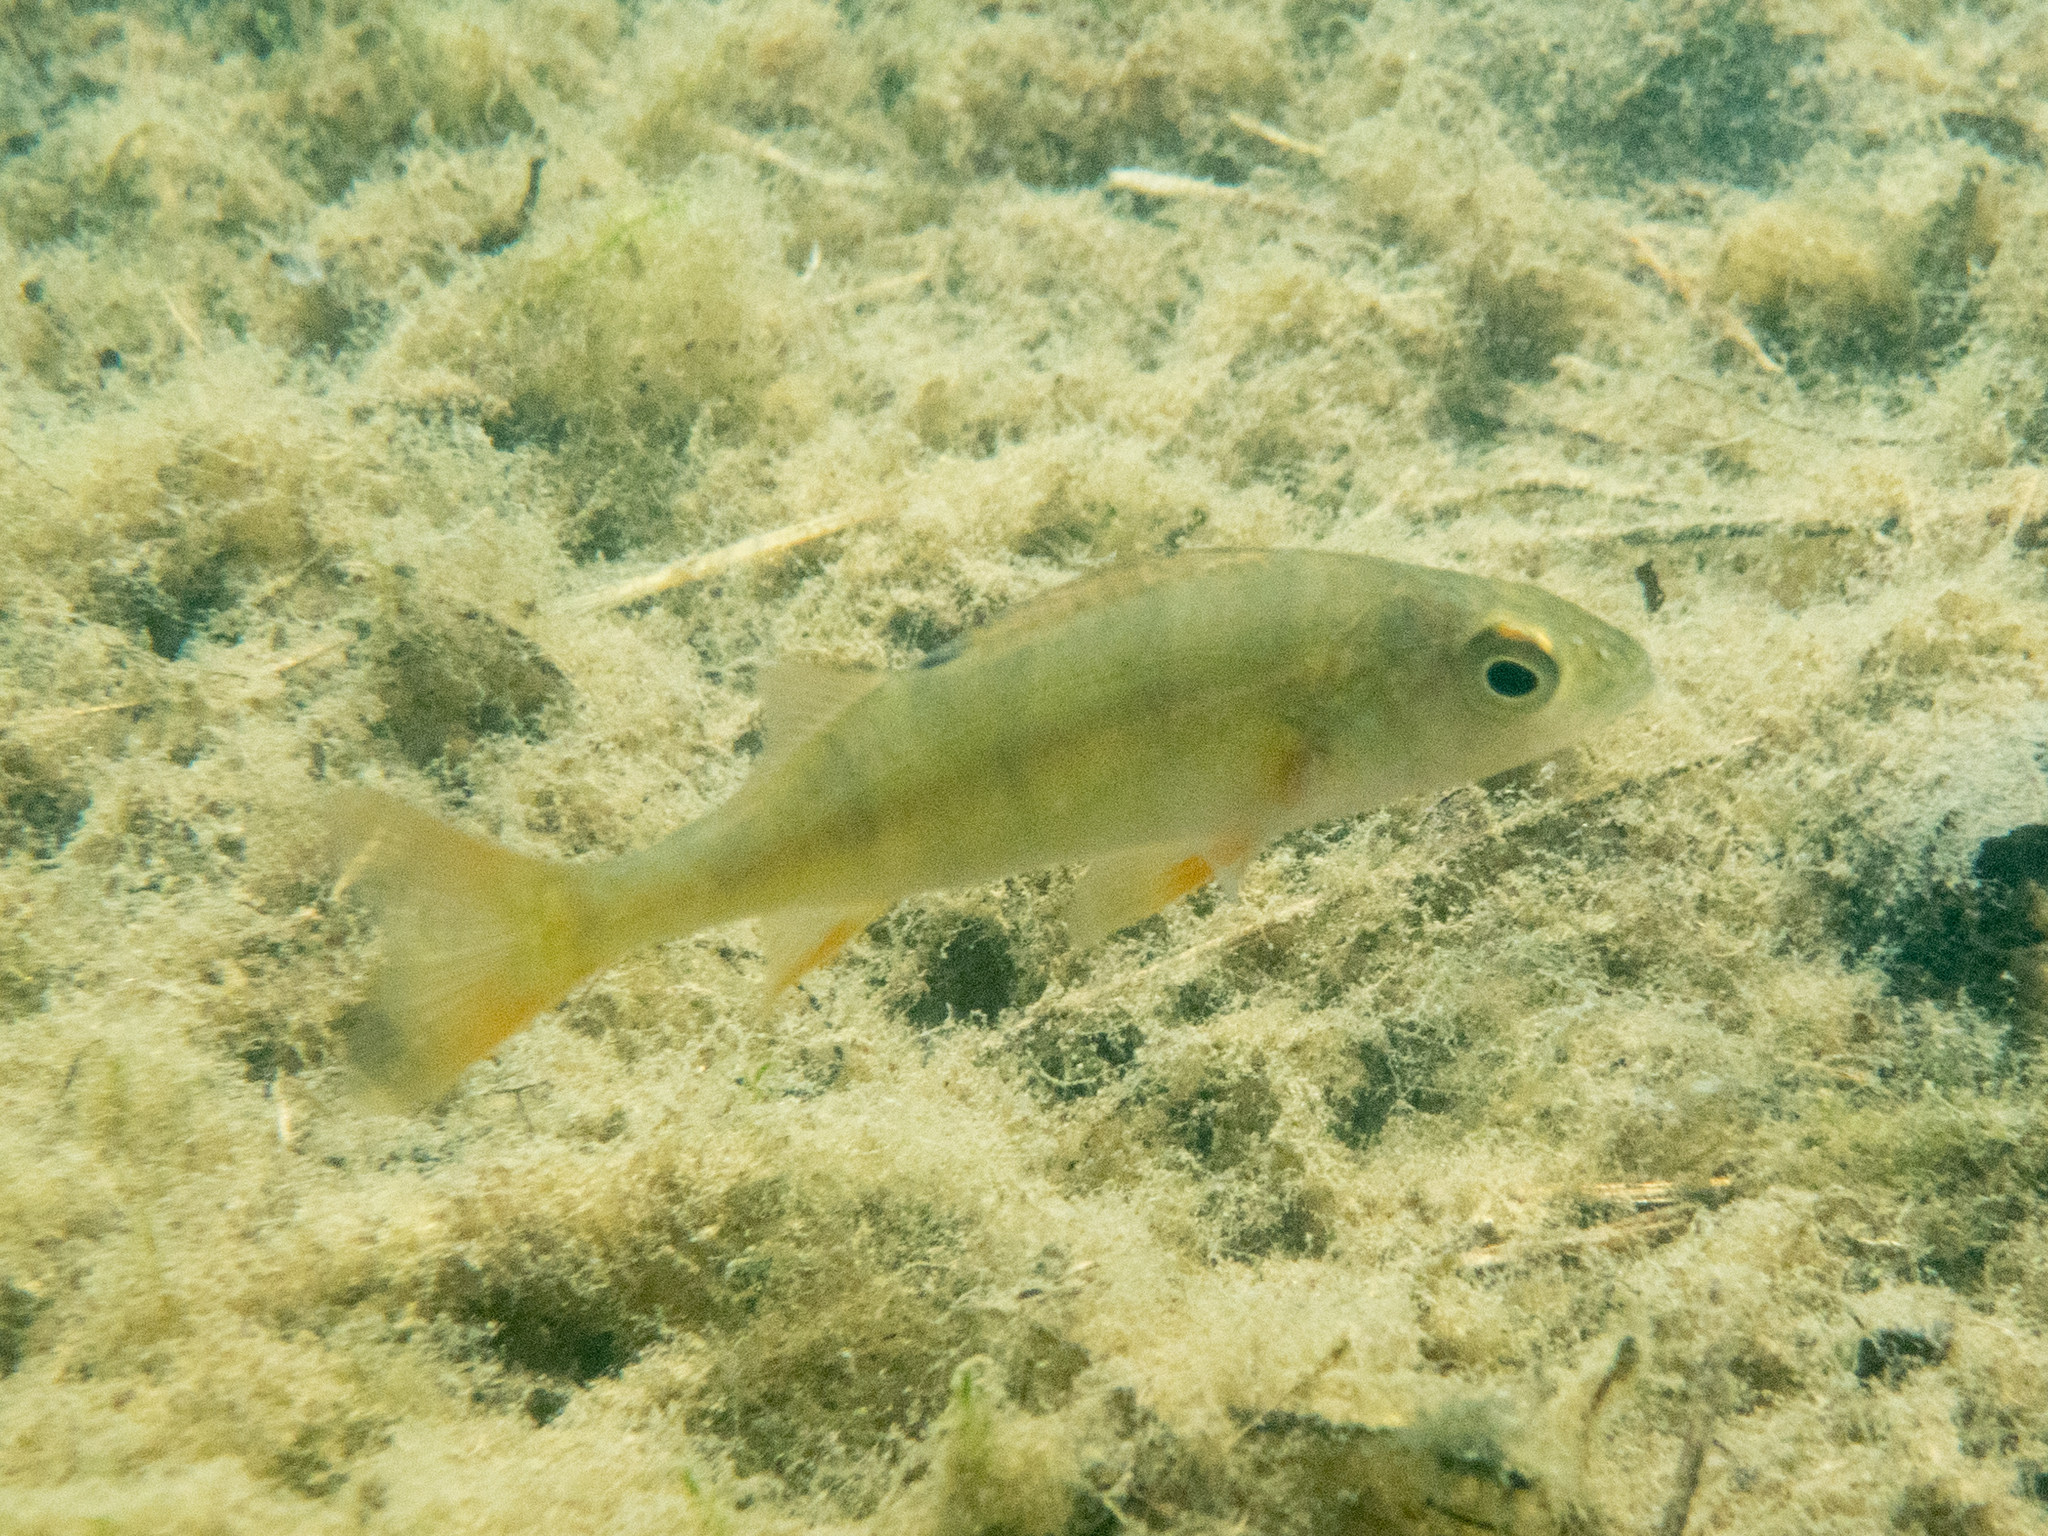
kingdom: Animalia
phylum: Chordata
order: Perciformes
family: Percidae
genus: Perca
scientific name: Perca fluviatilis
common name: Perch
